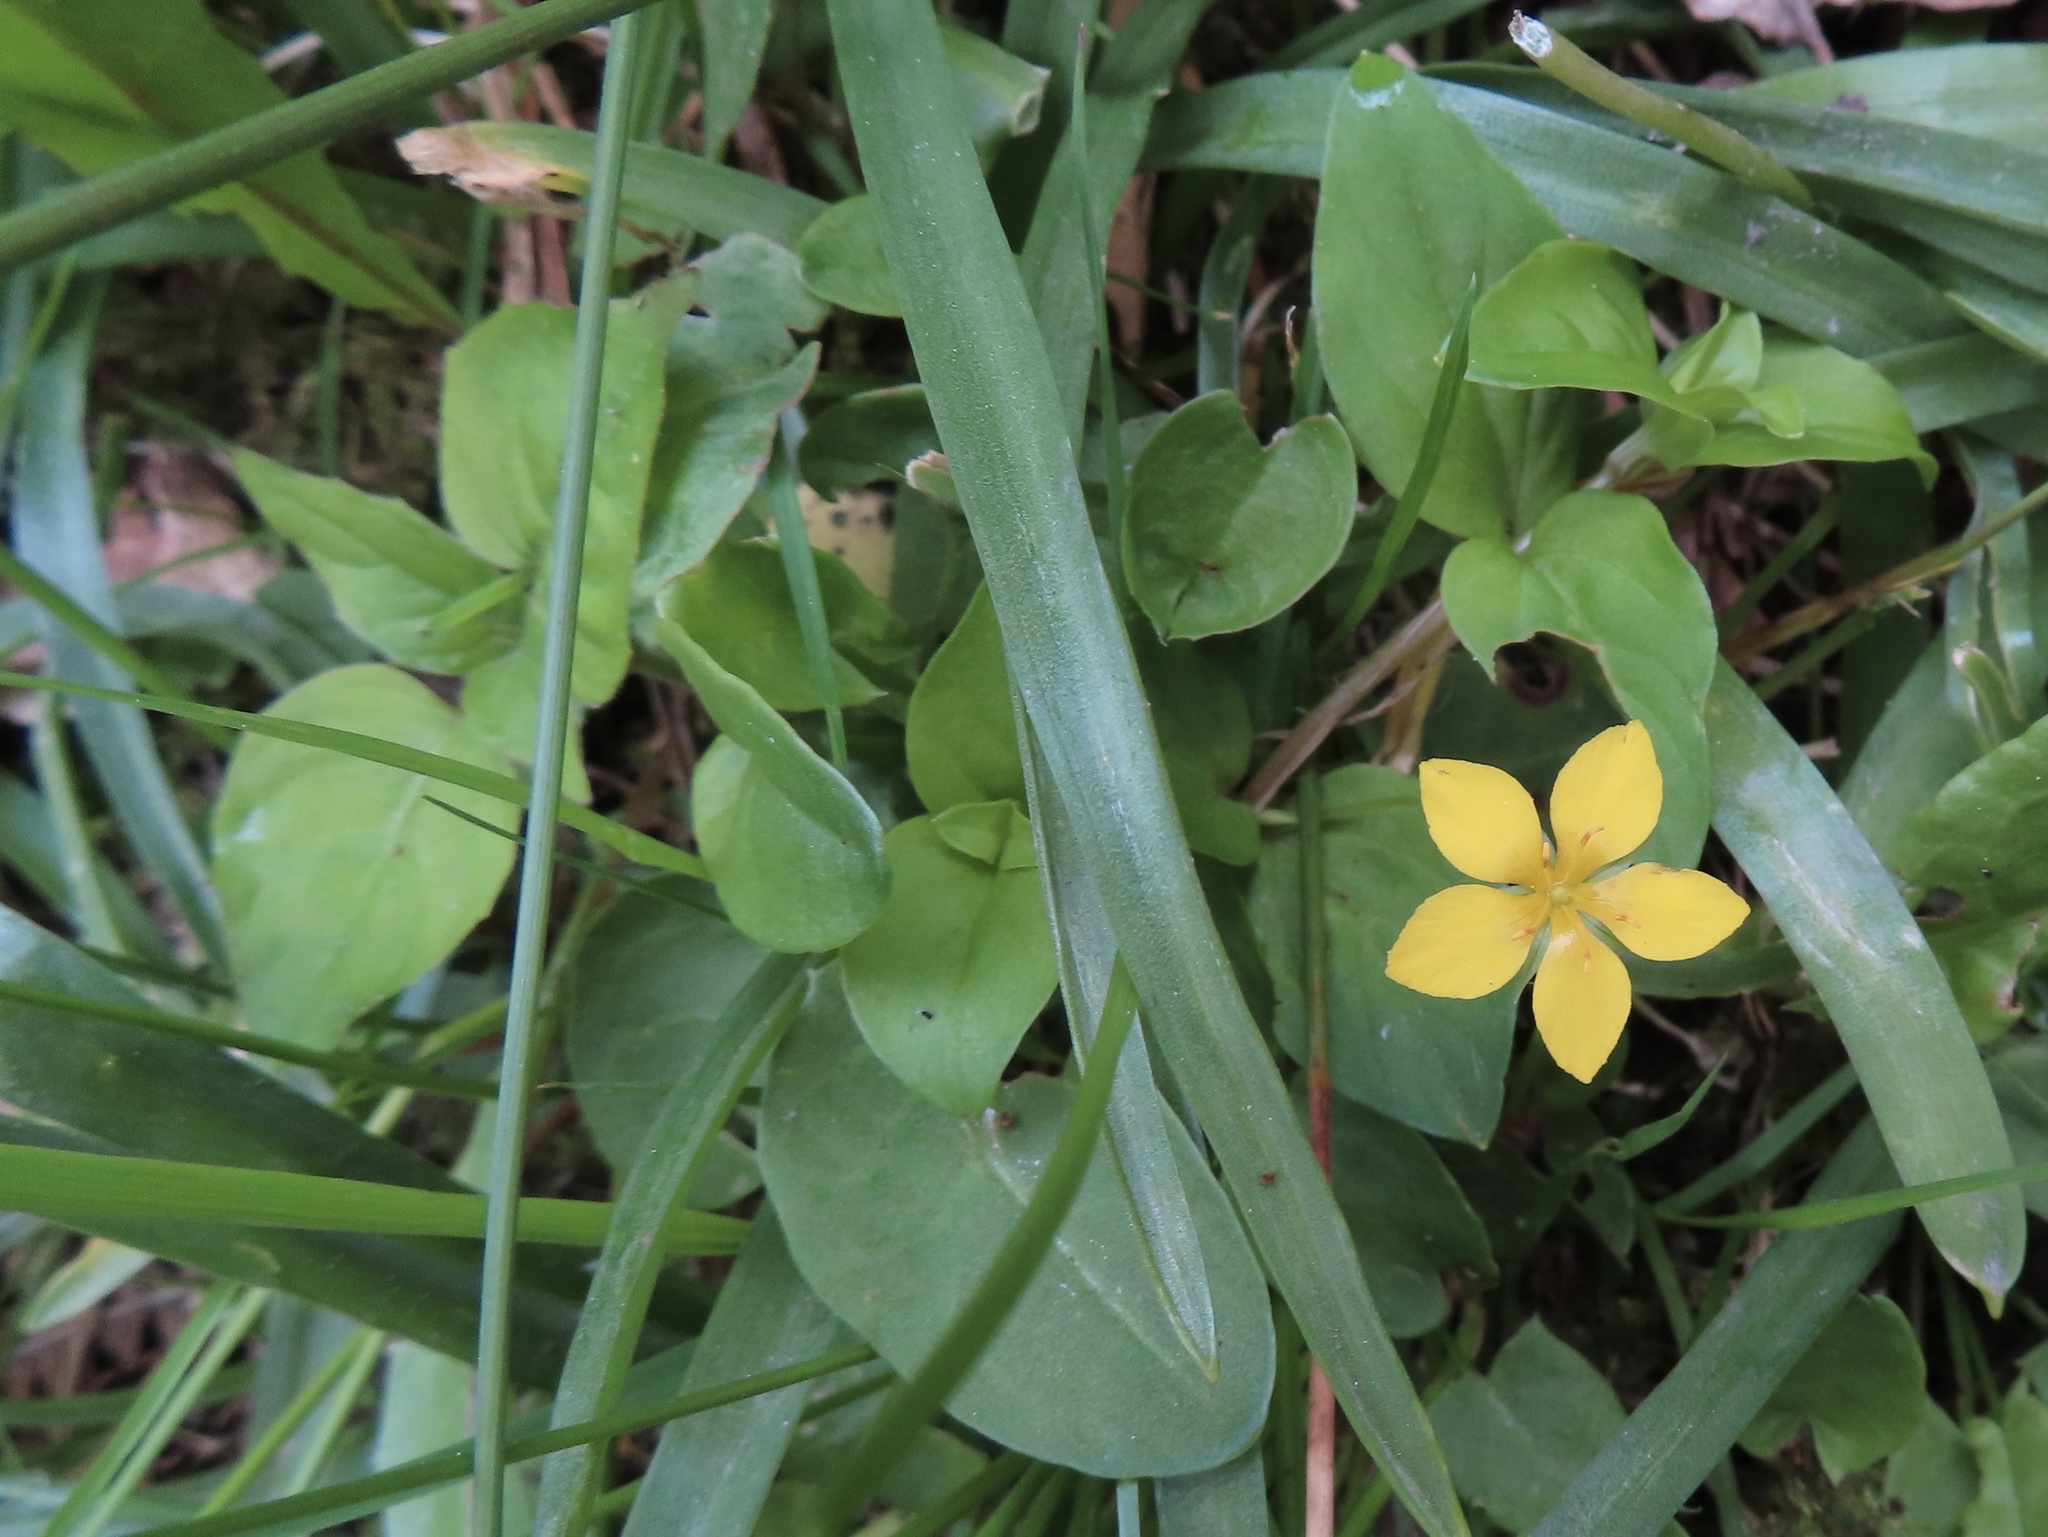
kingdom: Plantae
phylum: Tracheophyta
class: Magnoliopsida
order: Ericales
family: Primulaceae
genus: Lysimachia
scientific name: Lysimachia nemorum
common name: Yellow pimpernel
